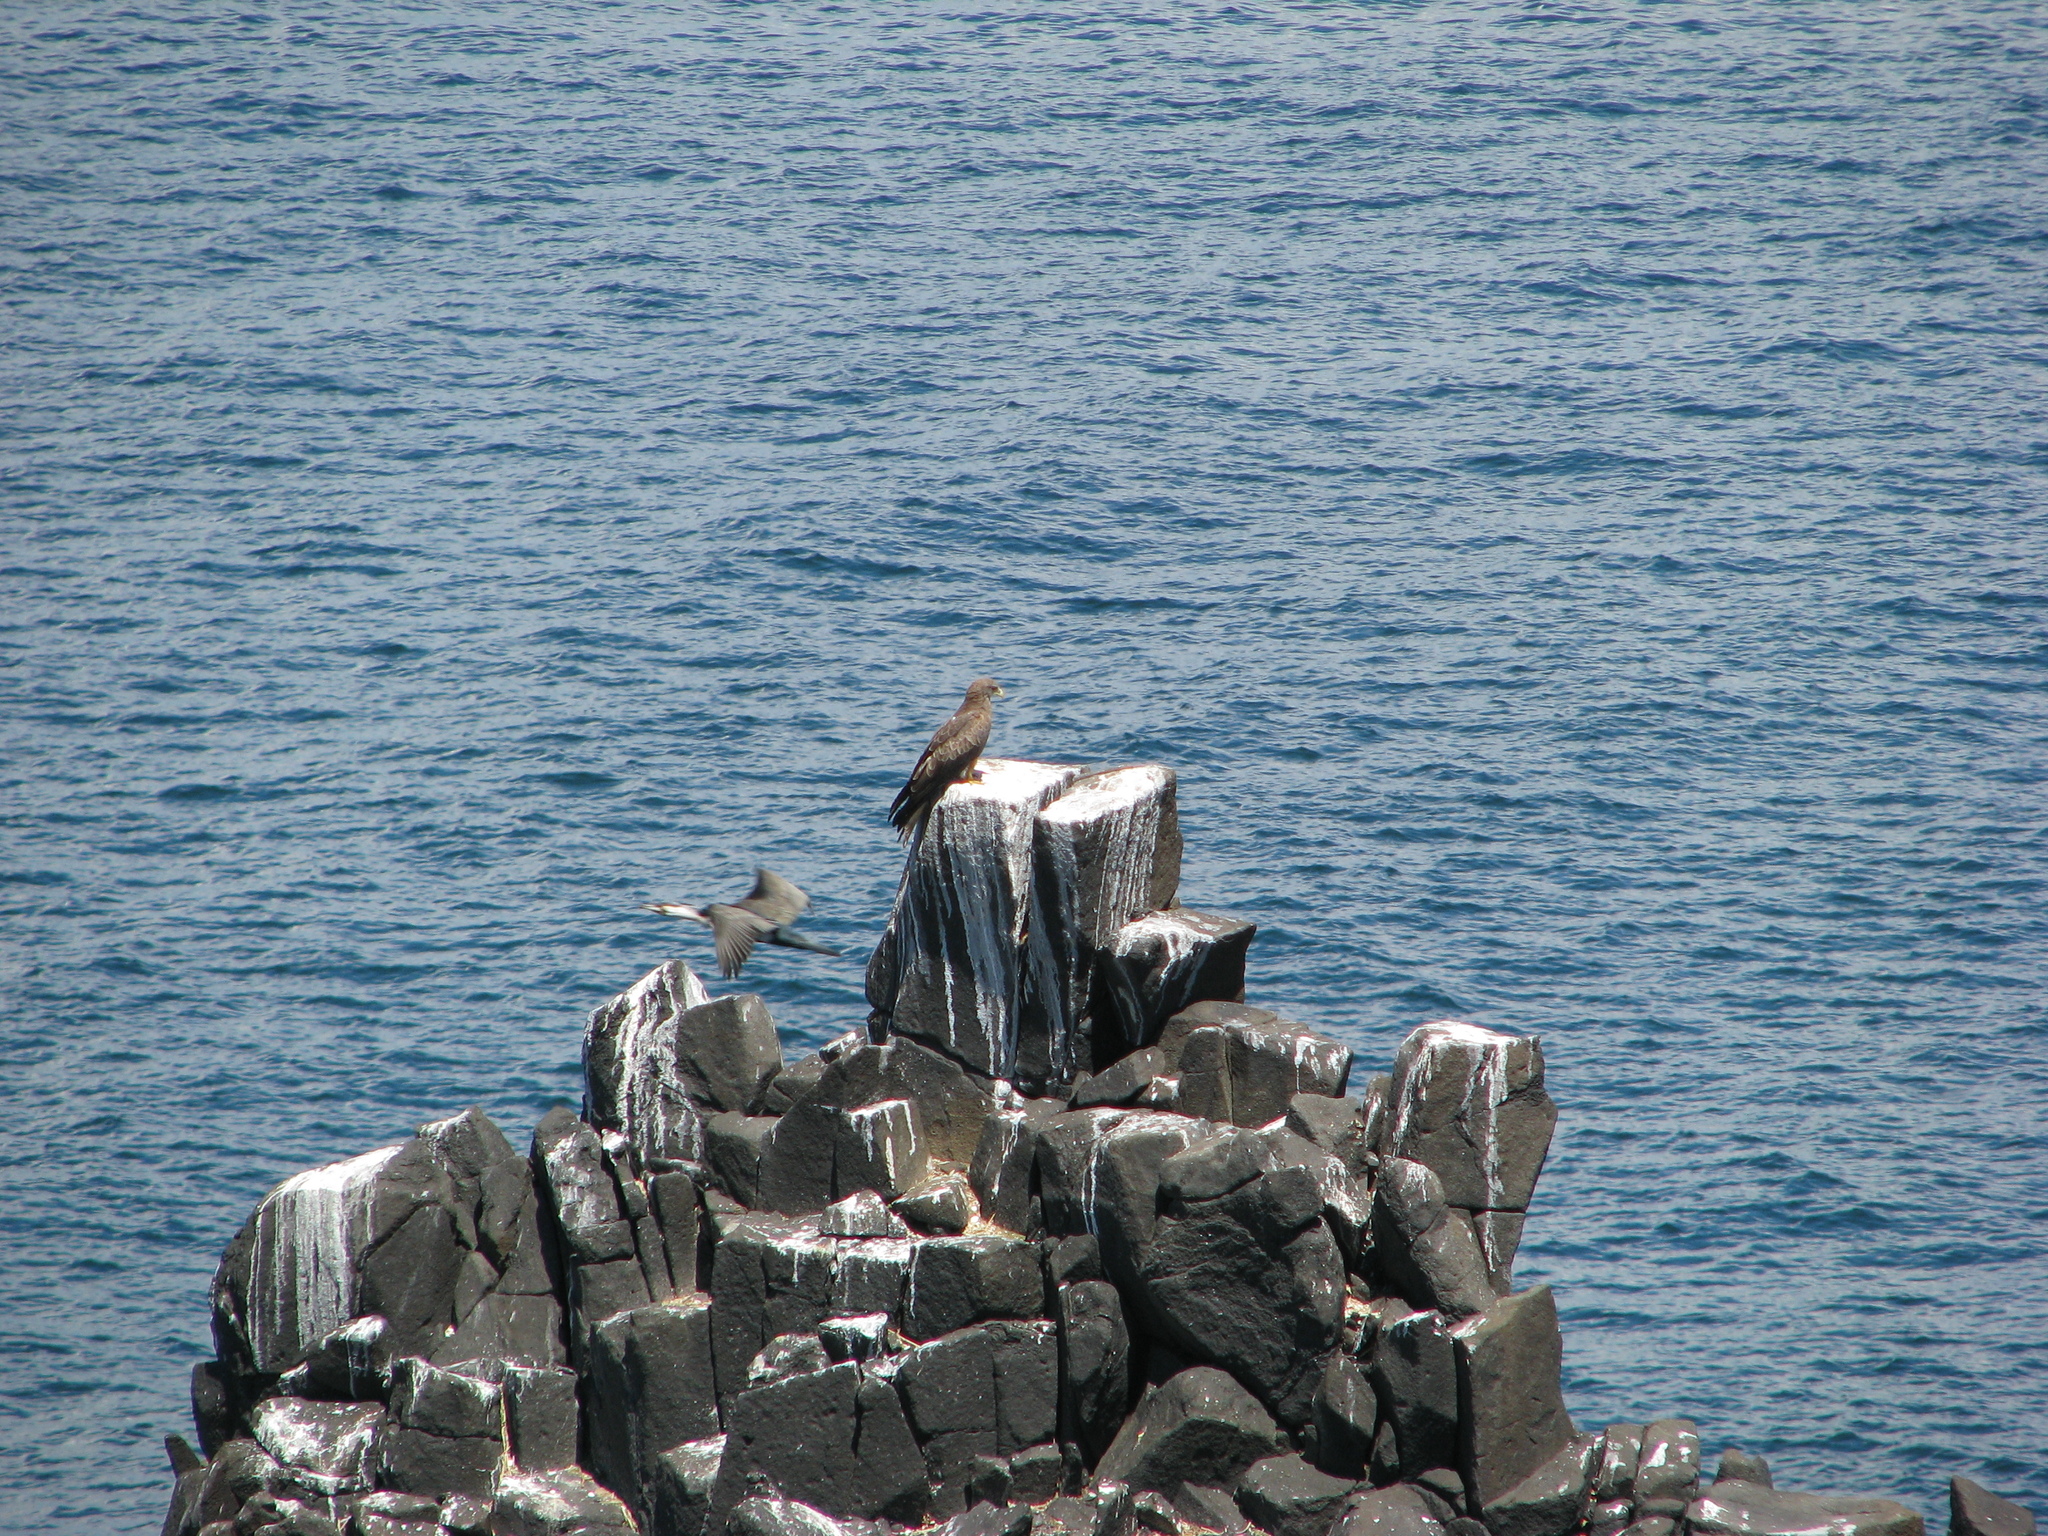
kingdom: Animalia
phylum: Chordata
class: Aves
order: Accipitriformes
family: Accipitridae
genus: Milvus
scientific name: Milvus migrans
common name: Black kite
